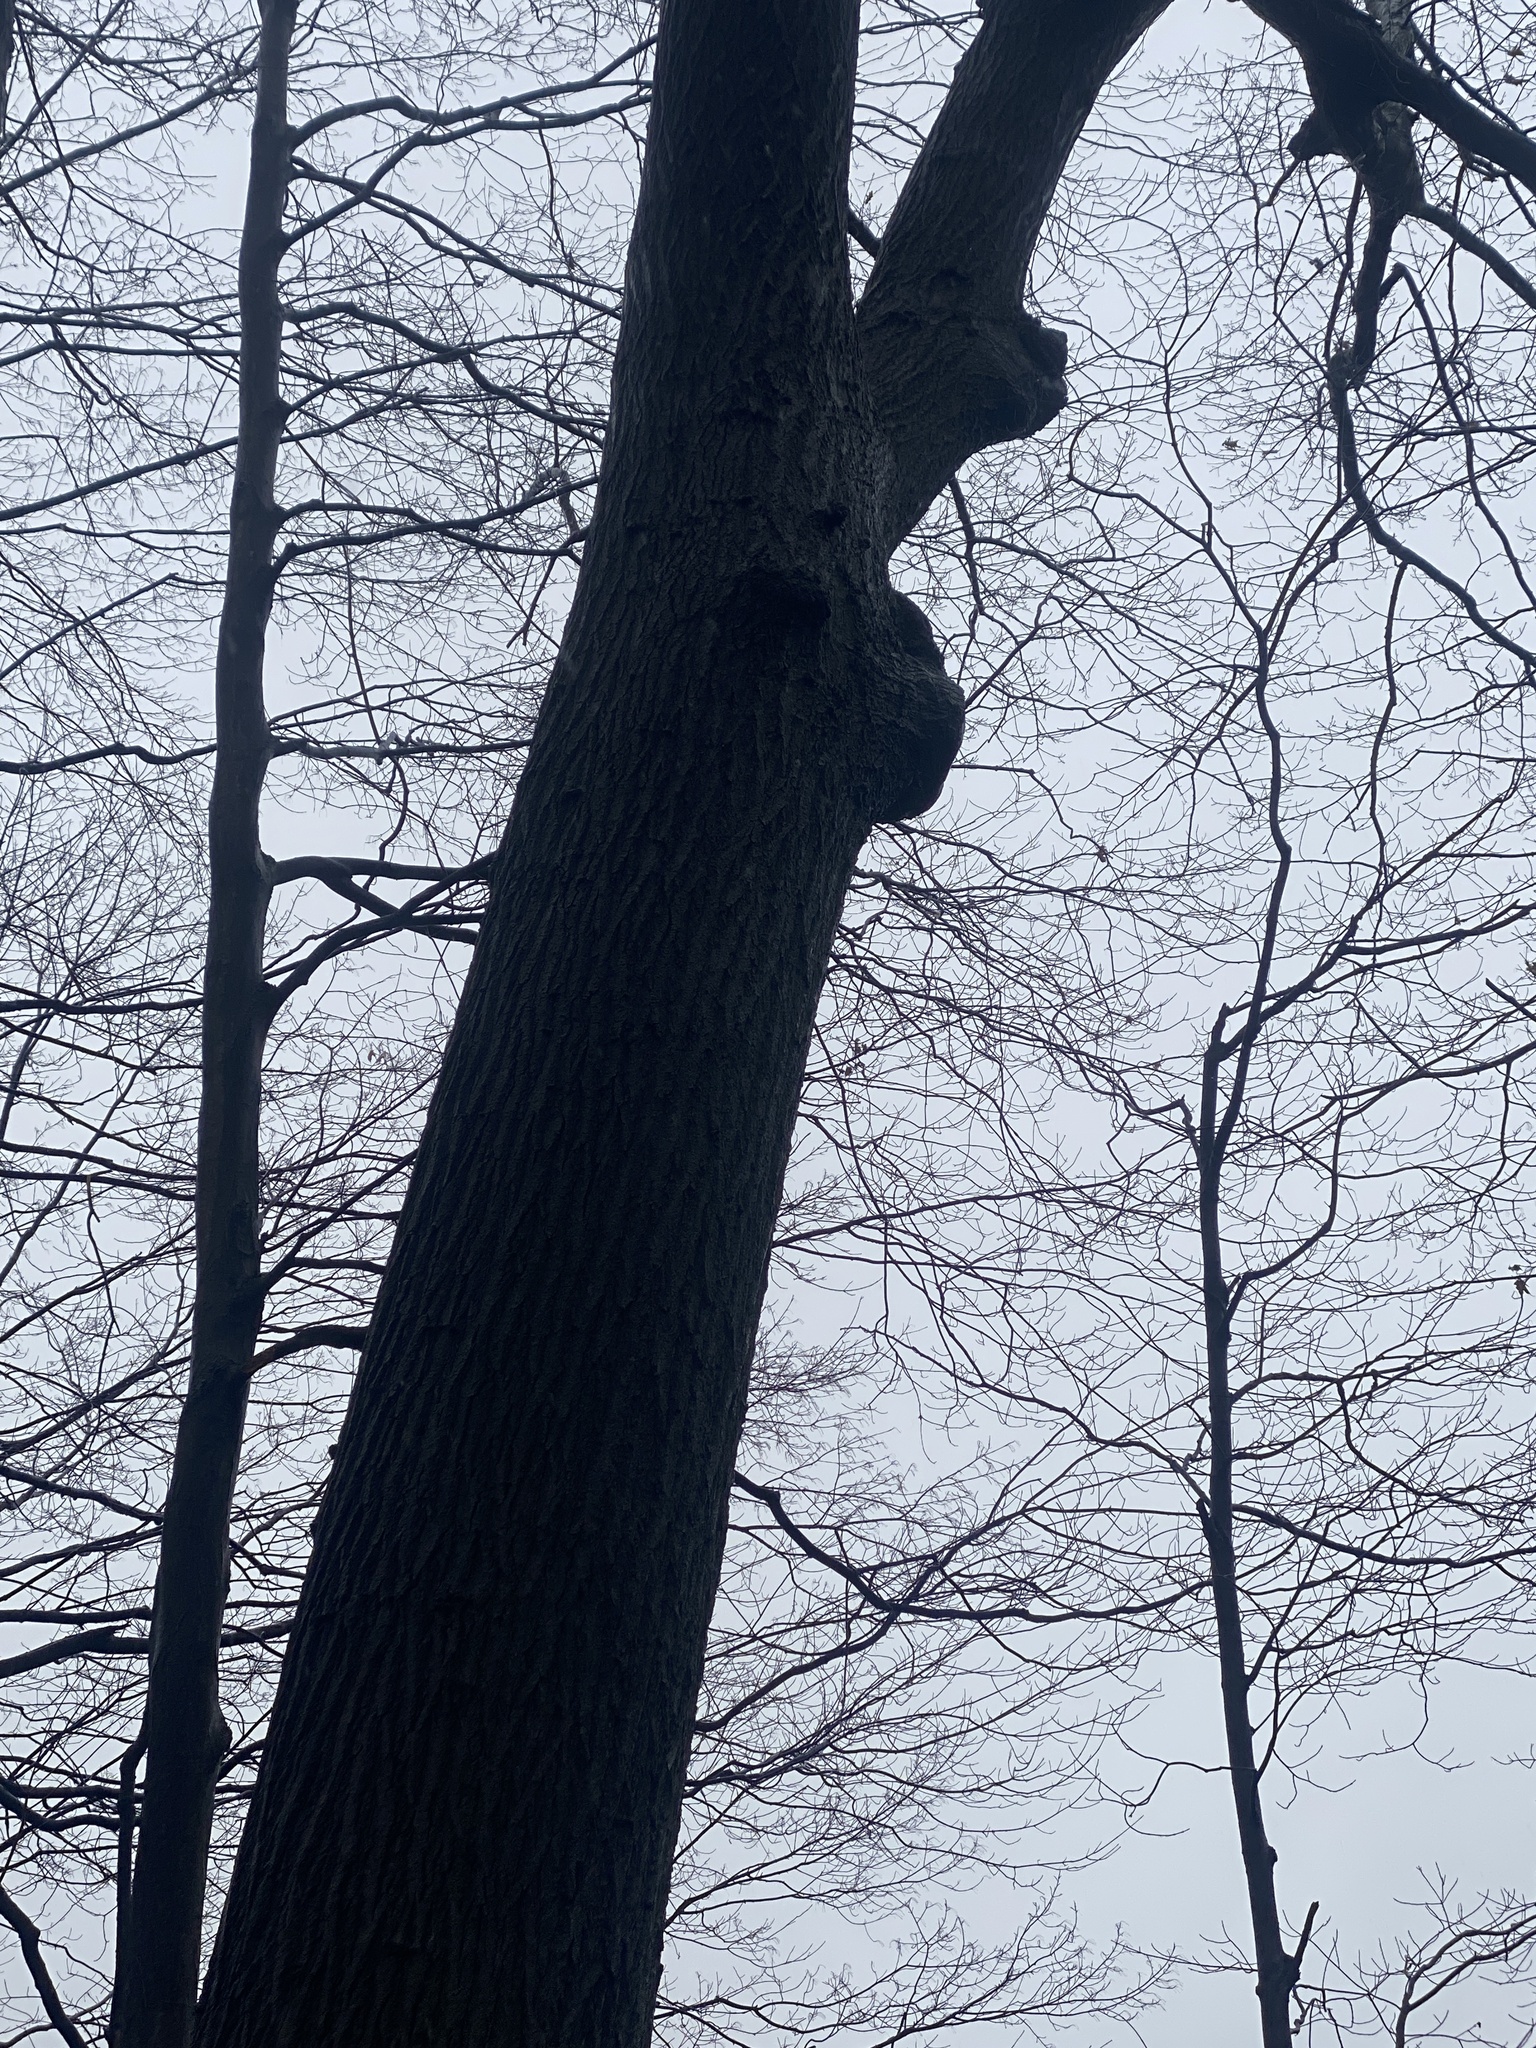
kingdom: Plantae
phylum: Tracheophyta
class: Magnoliopsida
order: Fagales
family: Fagaceae
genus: Quercus
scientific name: Quercus rubra
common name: Red oak
